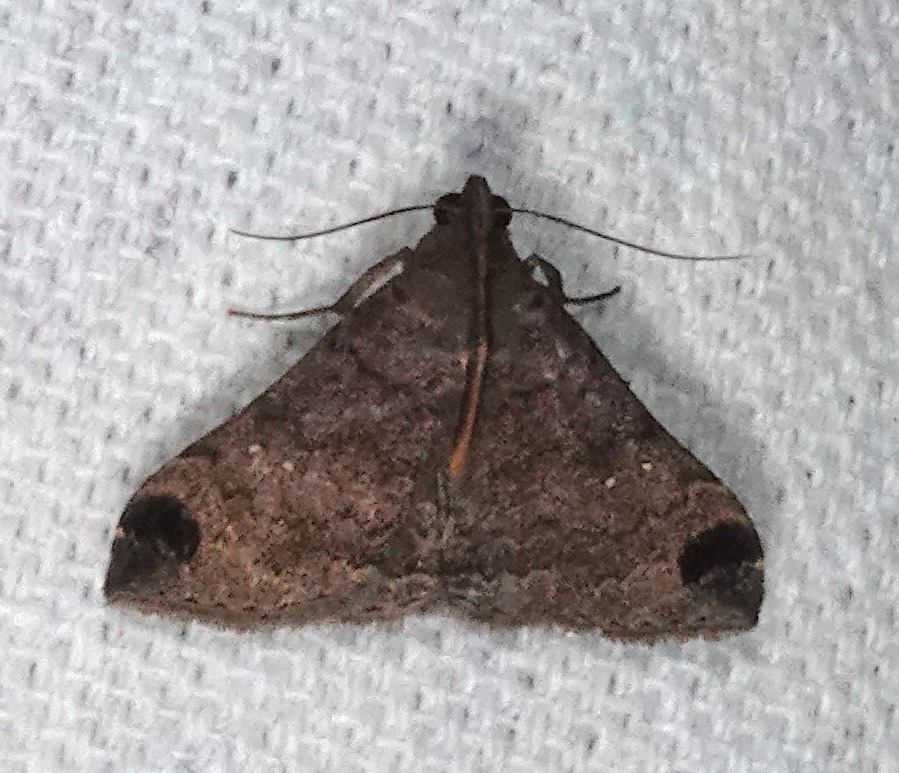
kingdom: Animalia
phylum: Arthropoda
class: Insecta
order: Lepidoptera
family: Erebidae
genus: Rejectaria
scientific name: Rejectaria aratus
